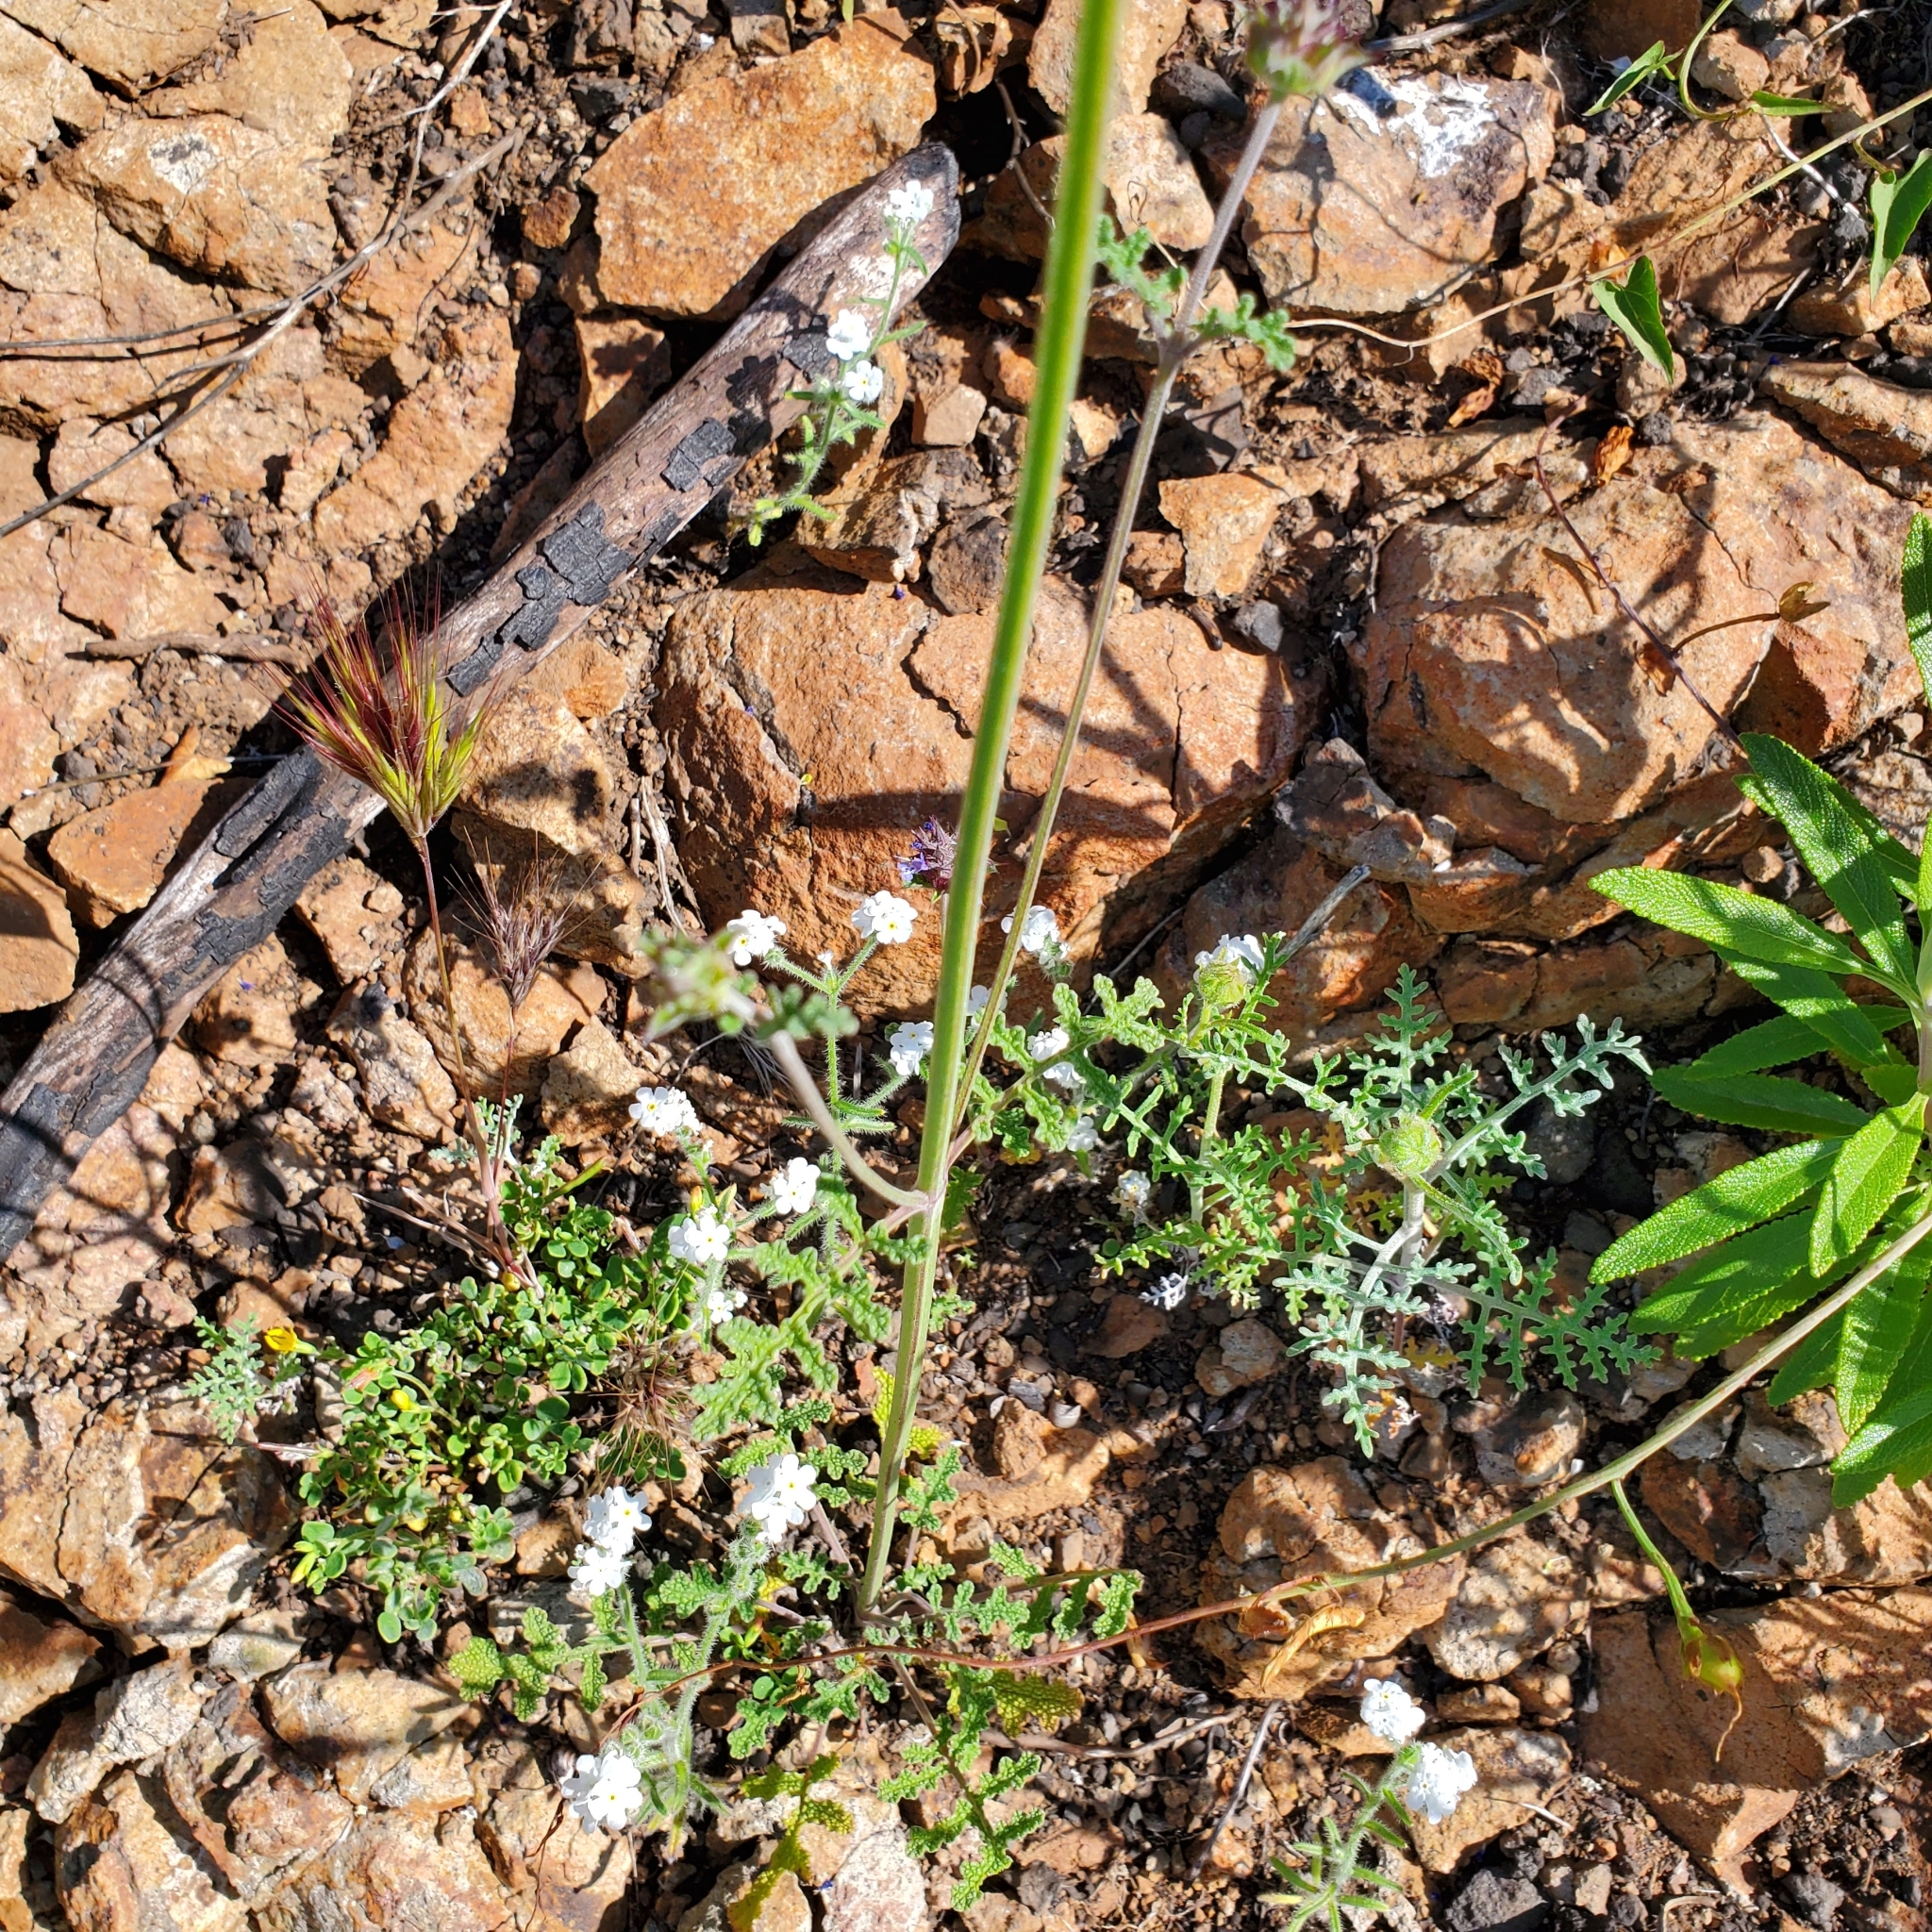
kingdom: Plantae
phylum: Tracheophyta
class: Magnoliopsida
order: Lamiales
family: Lamiaceae
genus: Salvia
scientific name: Salvia columbariae
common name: Chia
